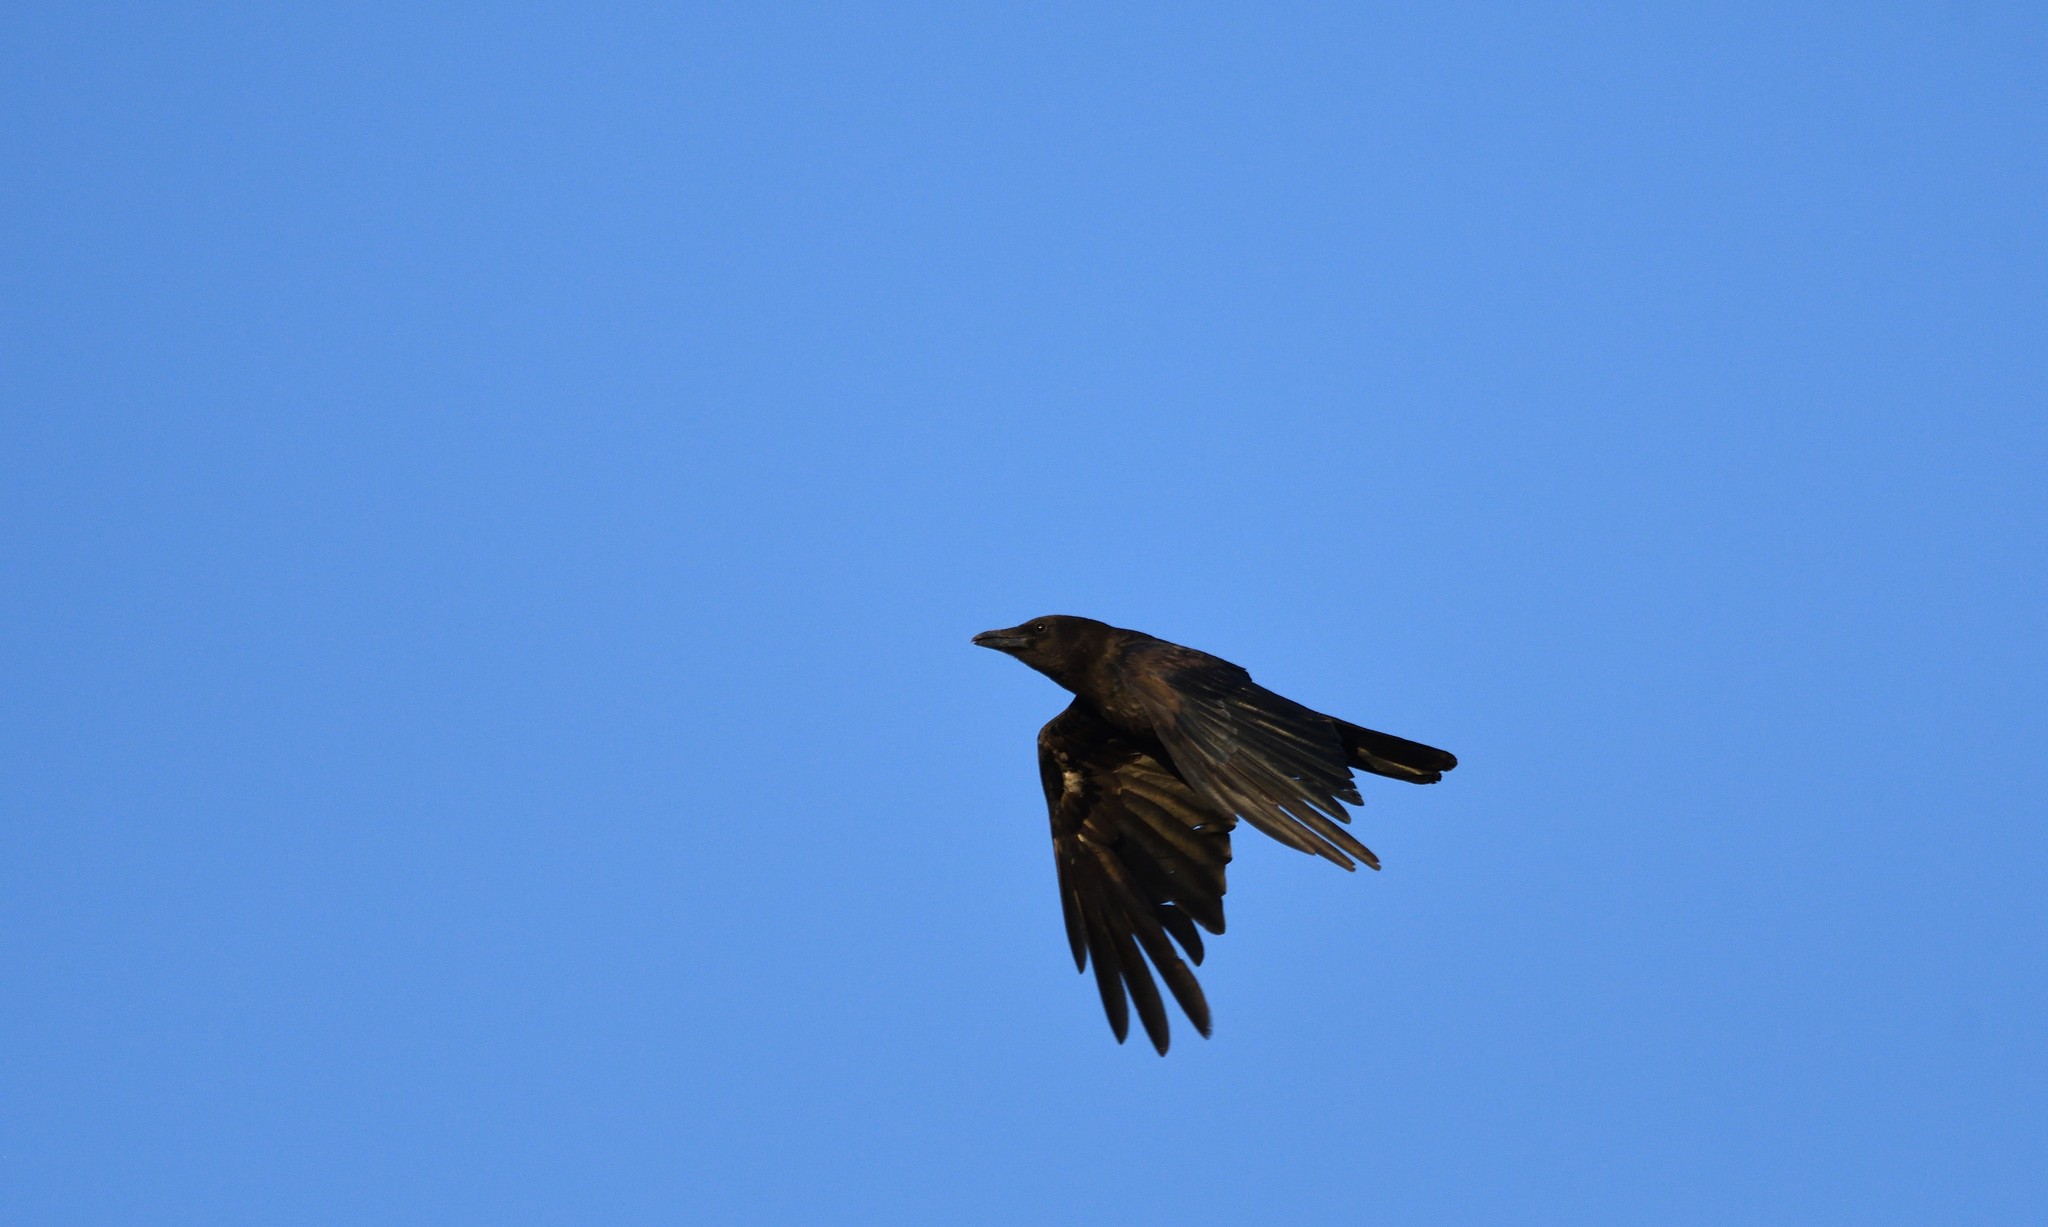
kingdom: Animalia
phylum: Chordata
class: Aves
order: Passeriformes
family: Corvidae
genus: Corvus
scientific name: Corvus corone
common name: Carrion crow
